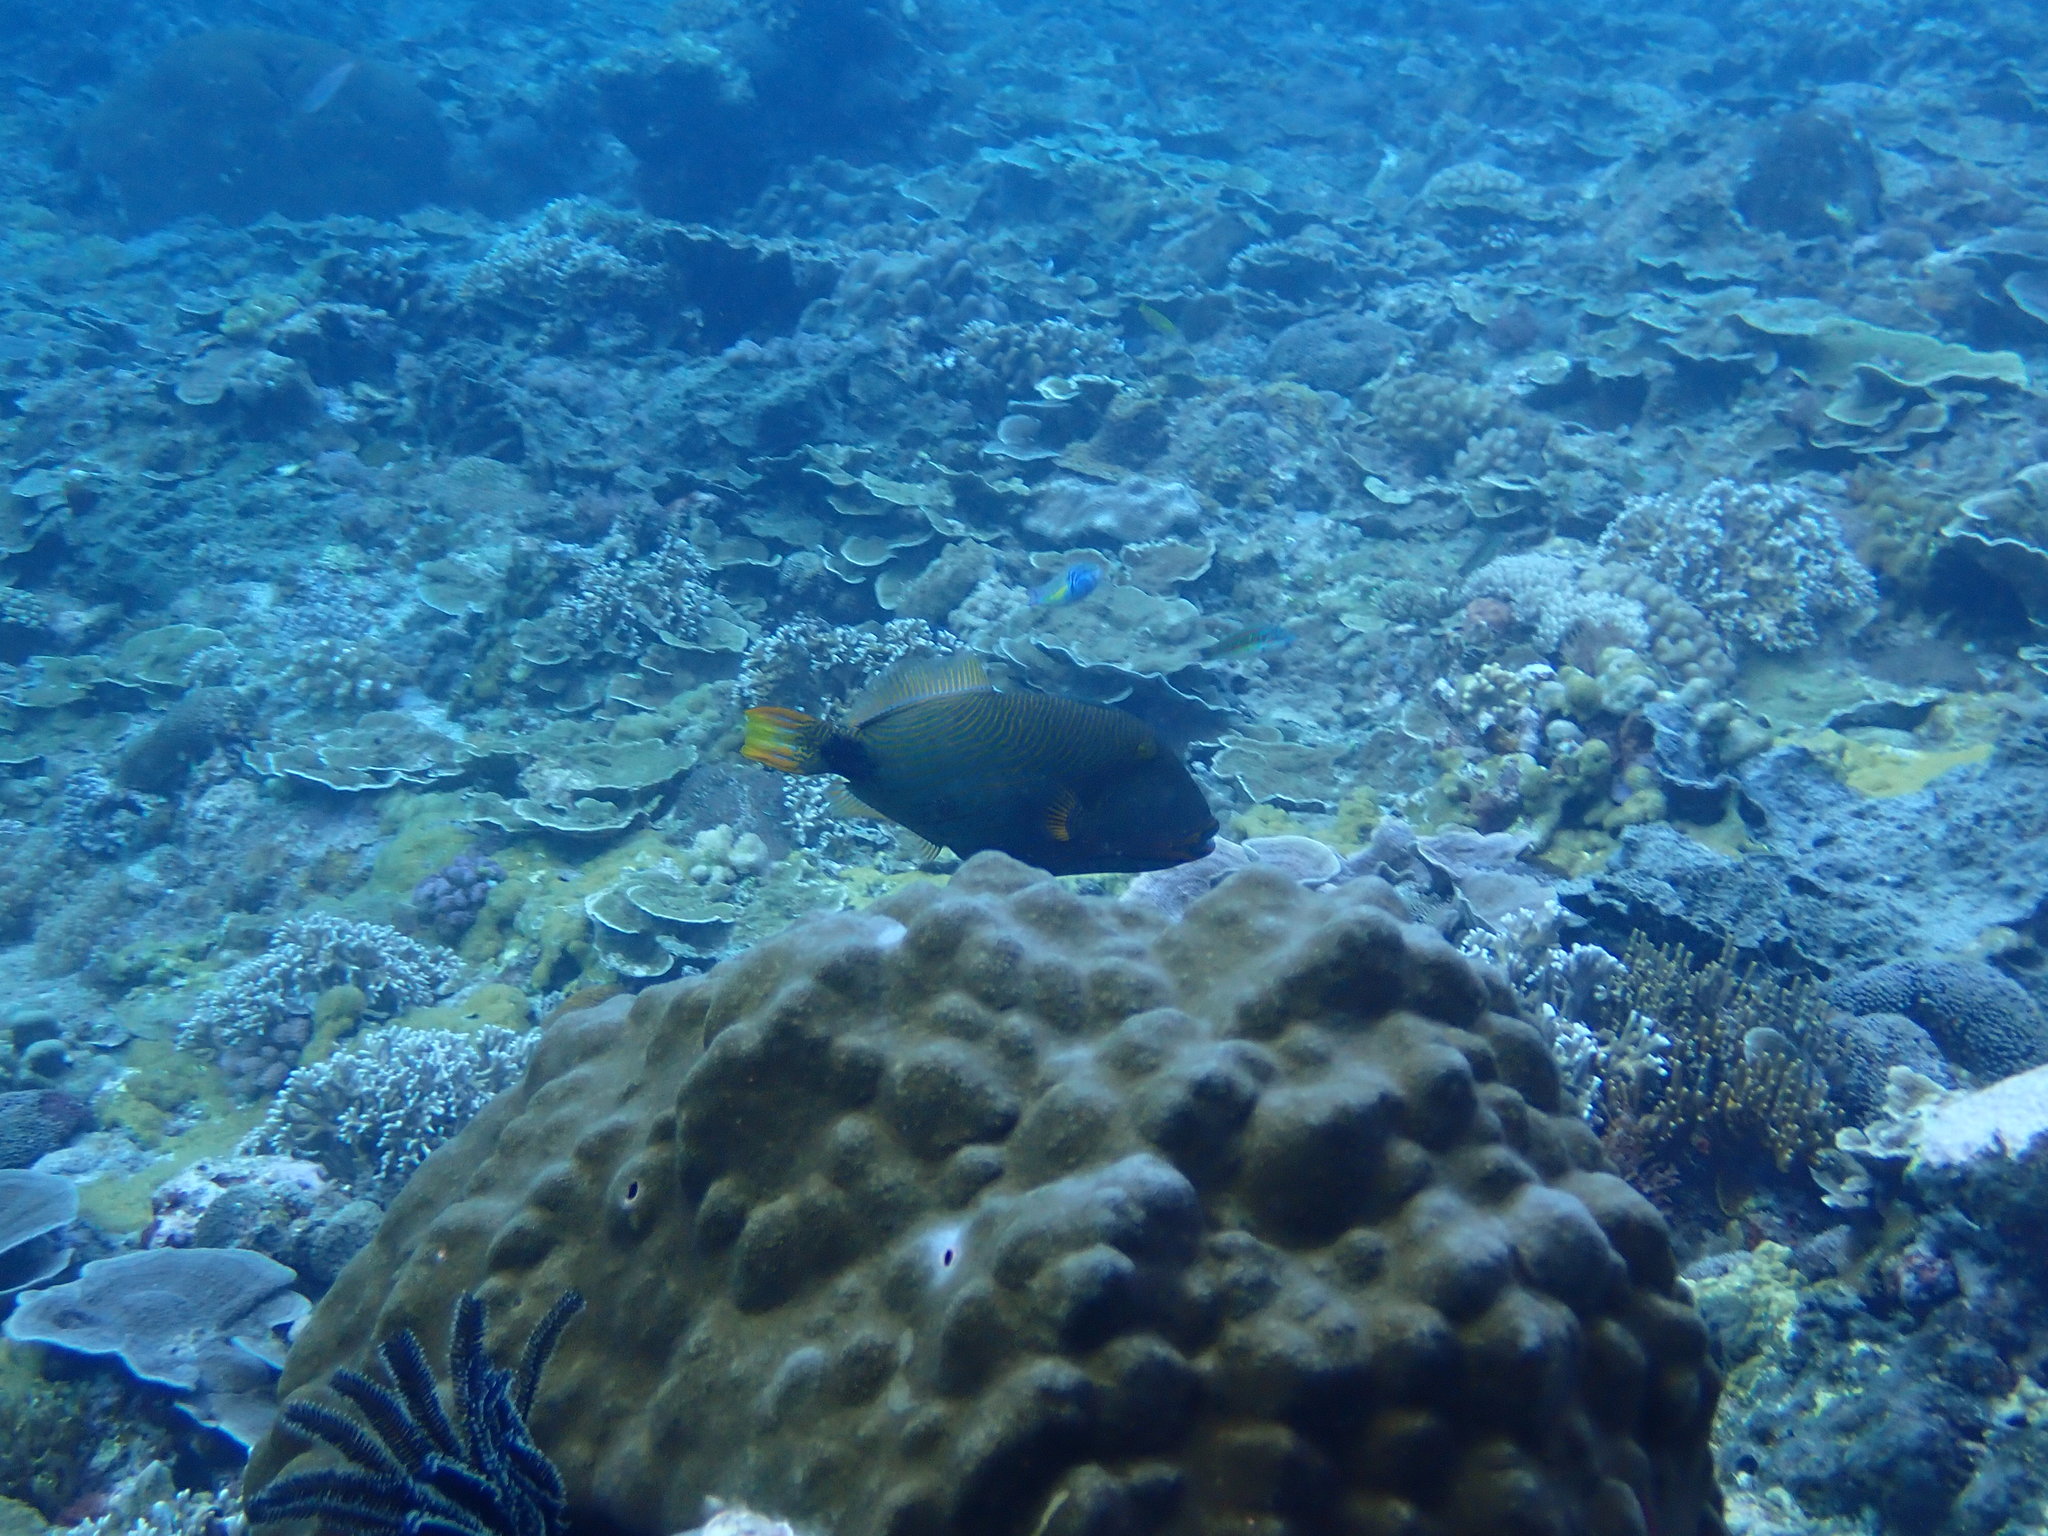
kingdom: Animalia
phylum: Chordata
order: Tetraodontiformes
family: Balistidae
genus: Balistapus
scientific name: Balistapus undulatus
